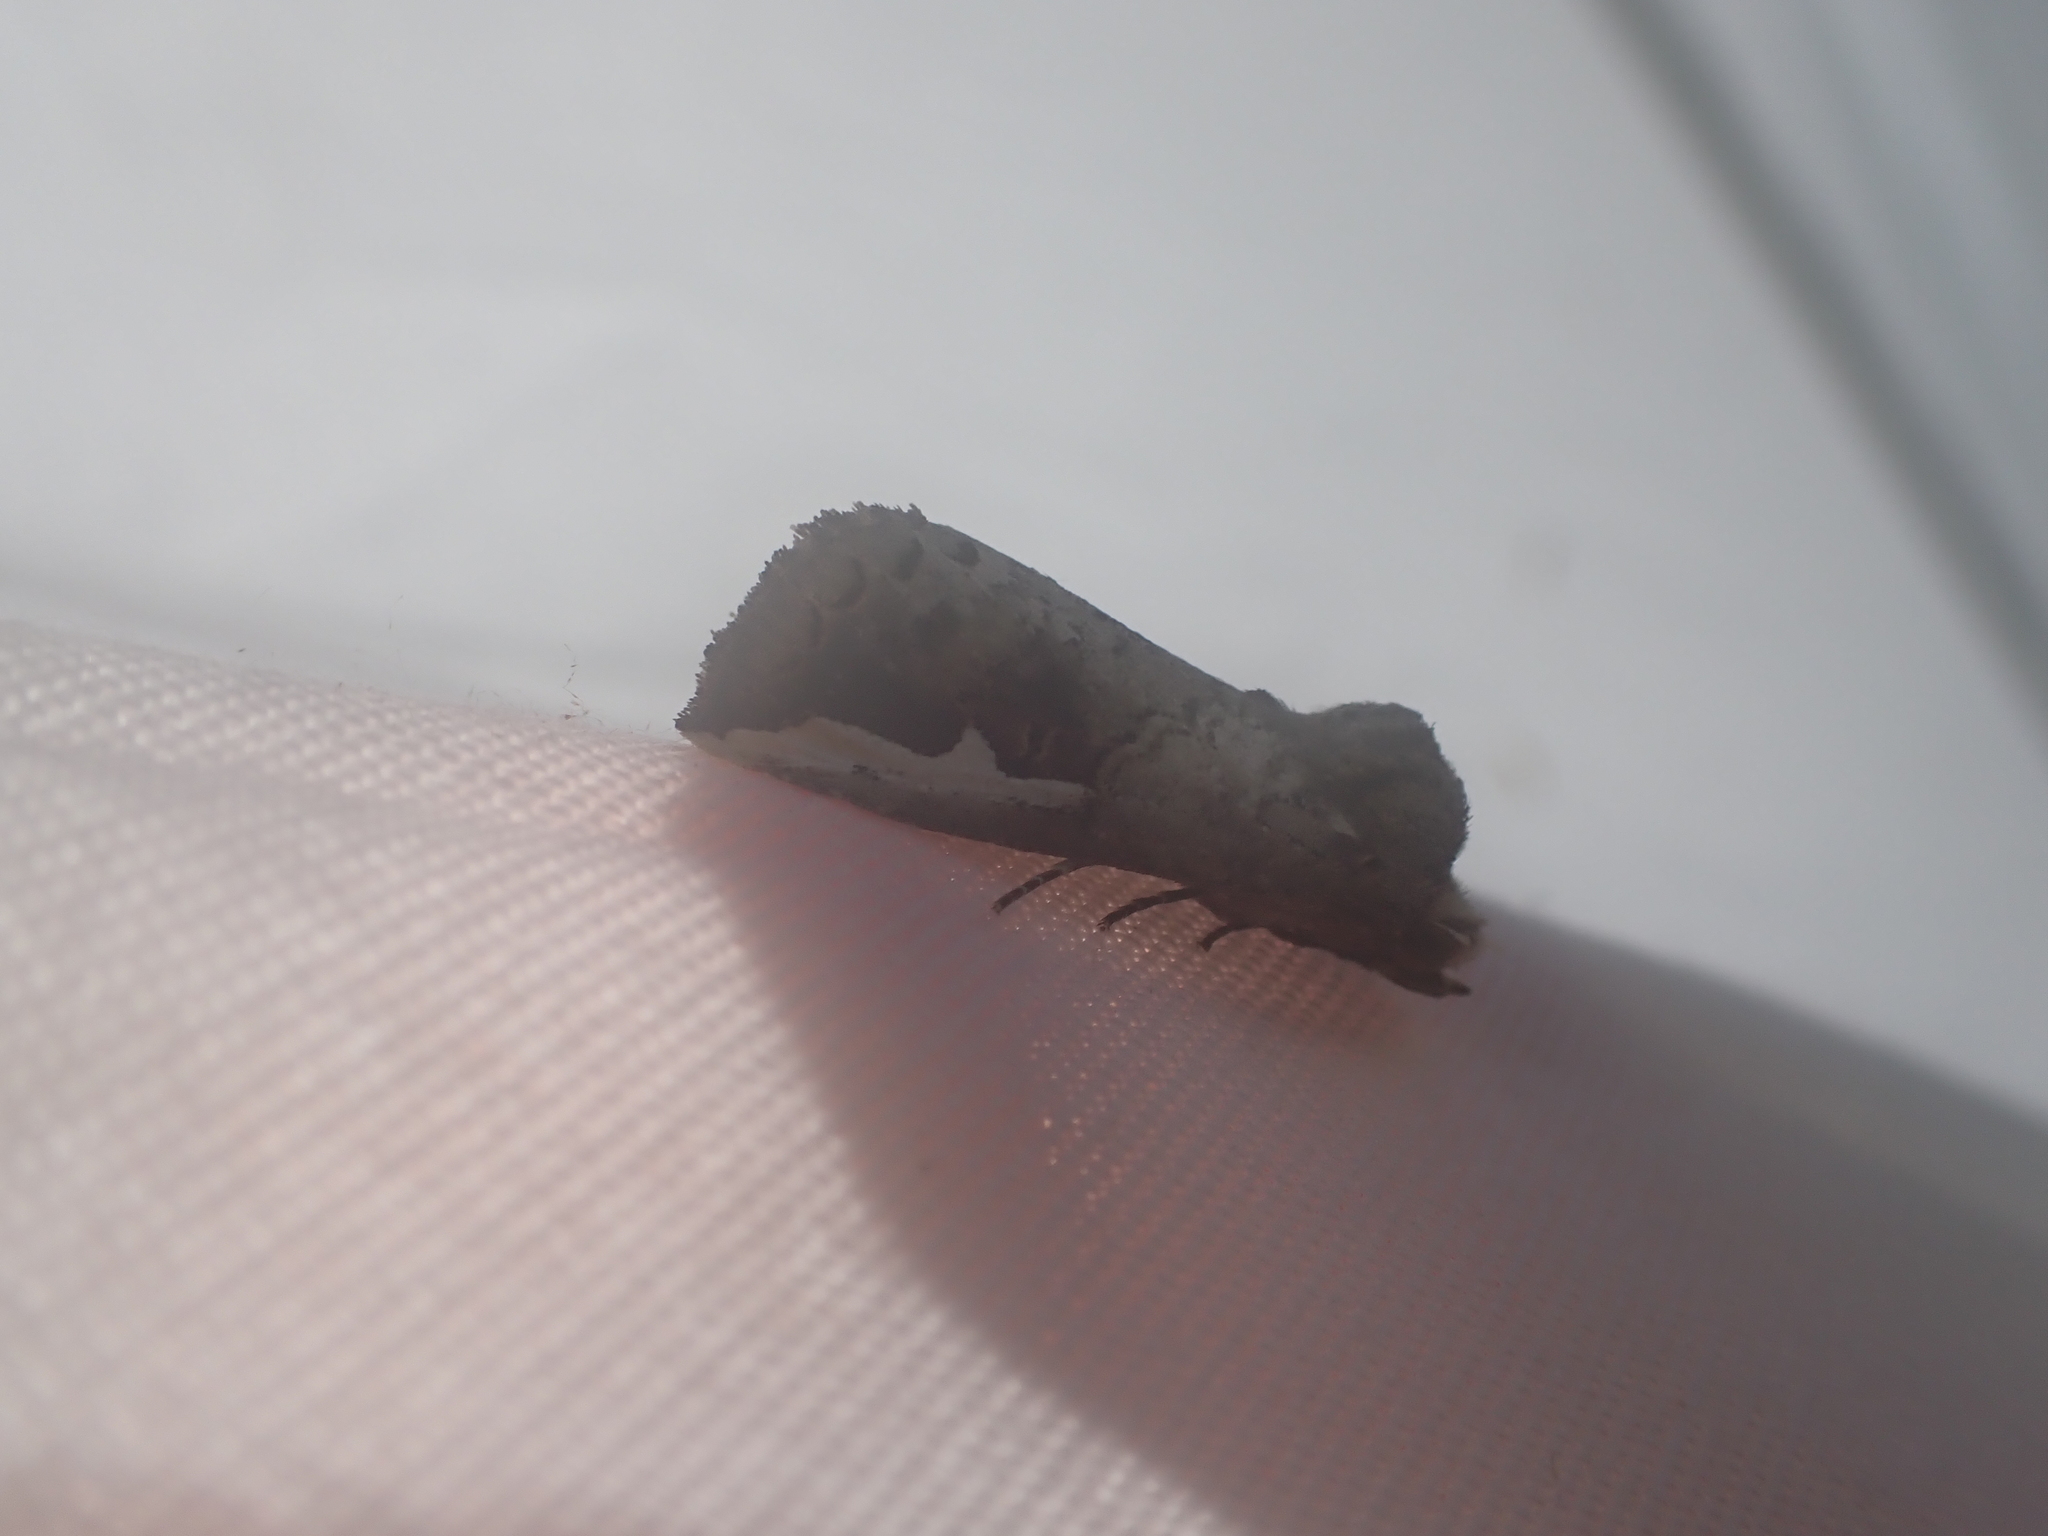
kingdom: Animalia
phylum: Arthropoda
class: Insecta
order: Lepidoptera
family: Notodontidae
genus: Symmerista
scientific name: Symmerista albifrons
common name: White-headed prominent
